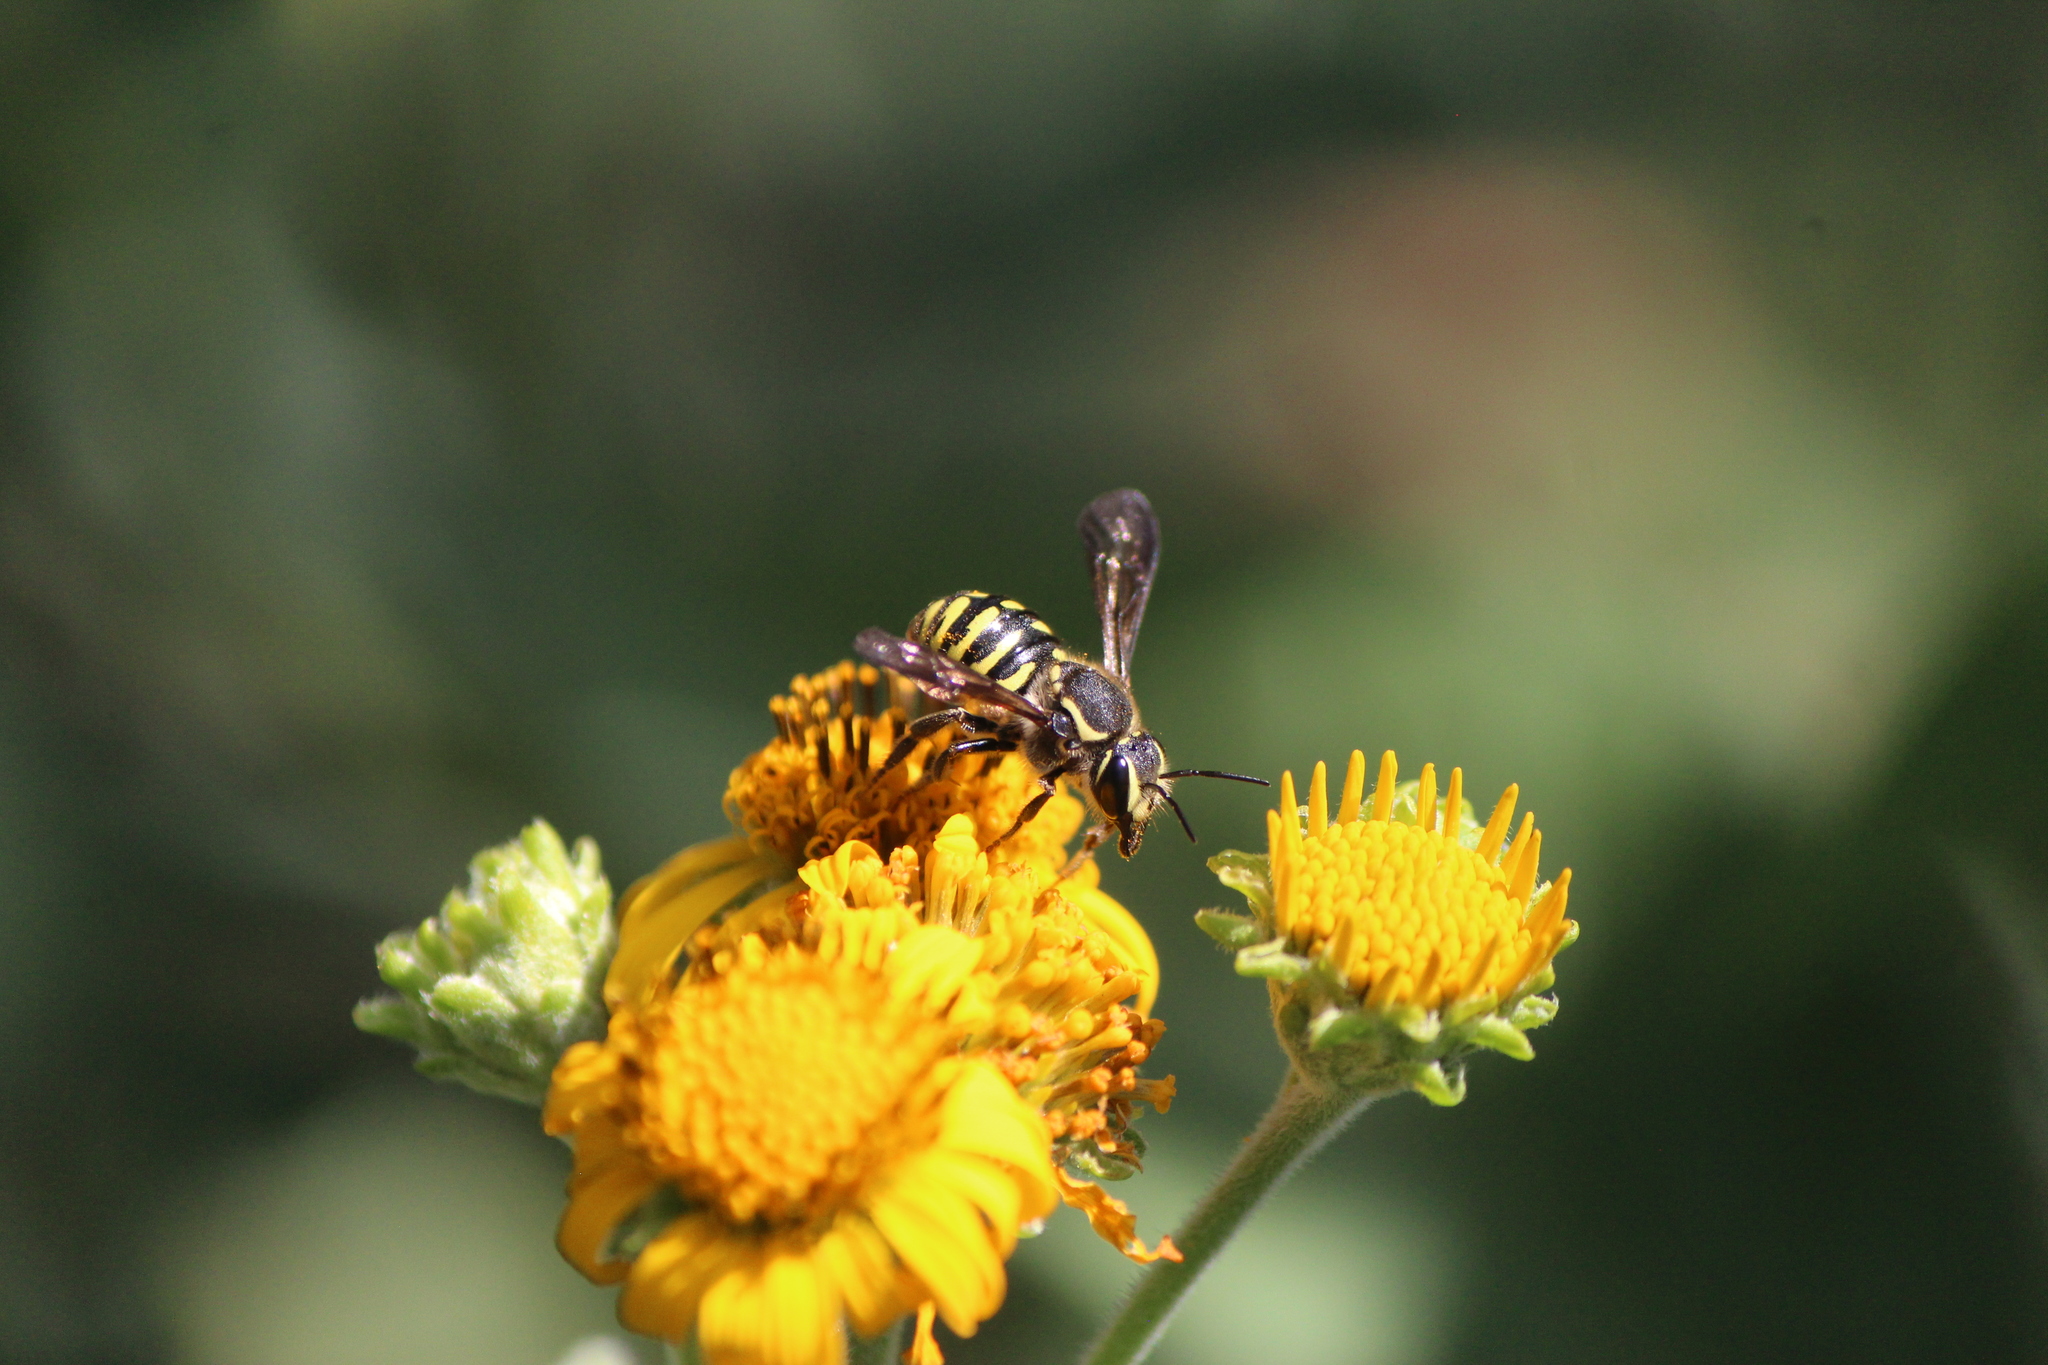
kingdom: Animalia
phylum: Arthropoda
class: Insecta
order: Hymenoptera
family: Megachilidae
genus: Paranthidium
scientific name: Paranthidium gabbii
